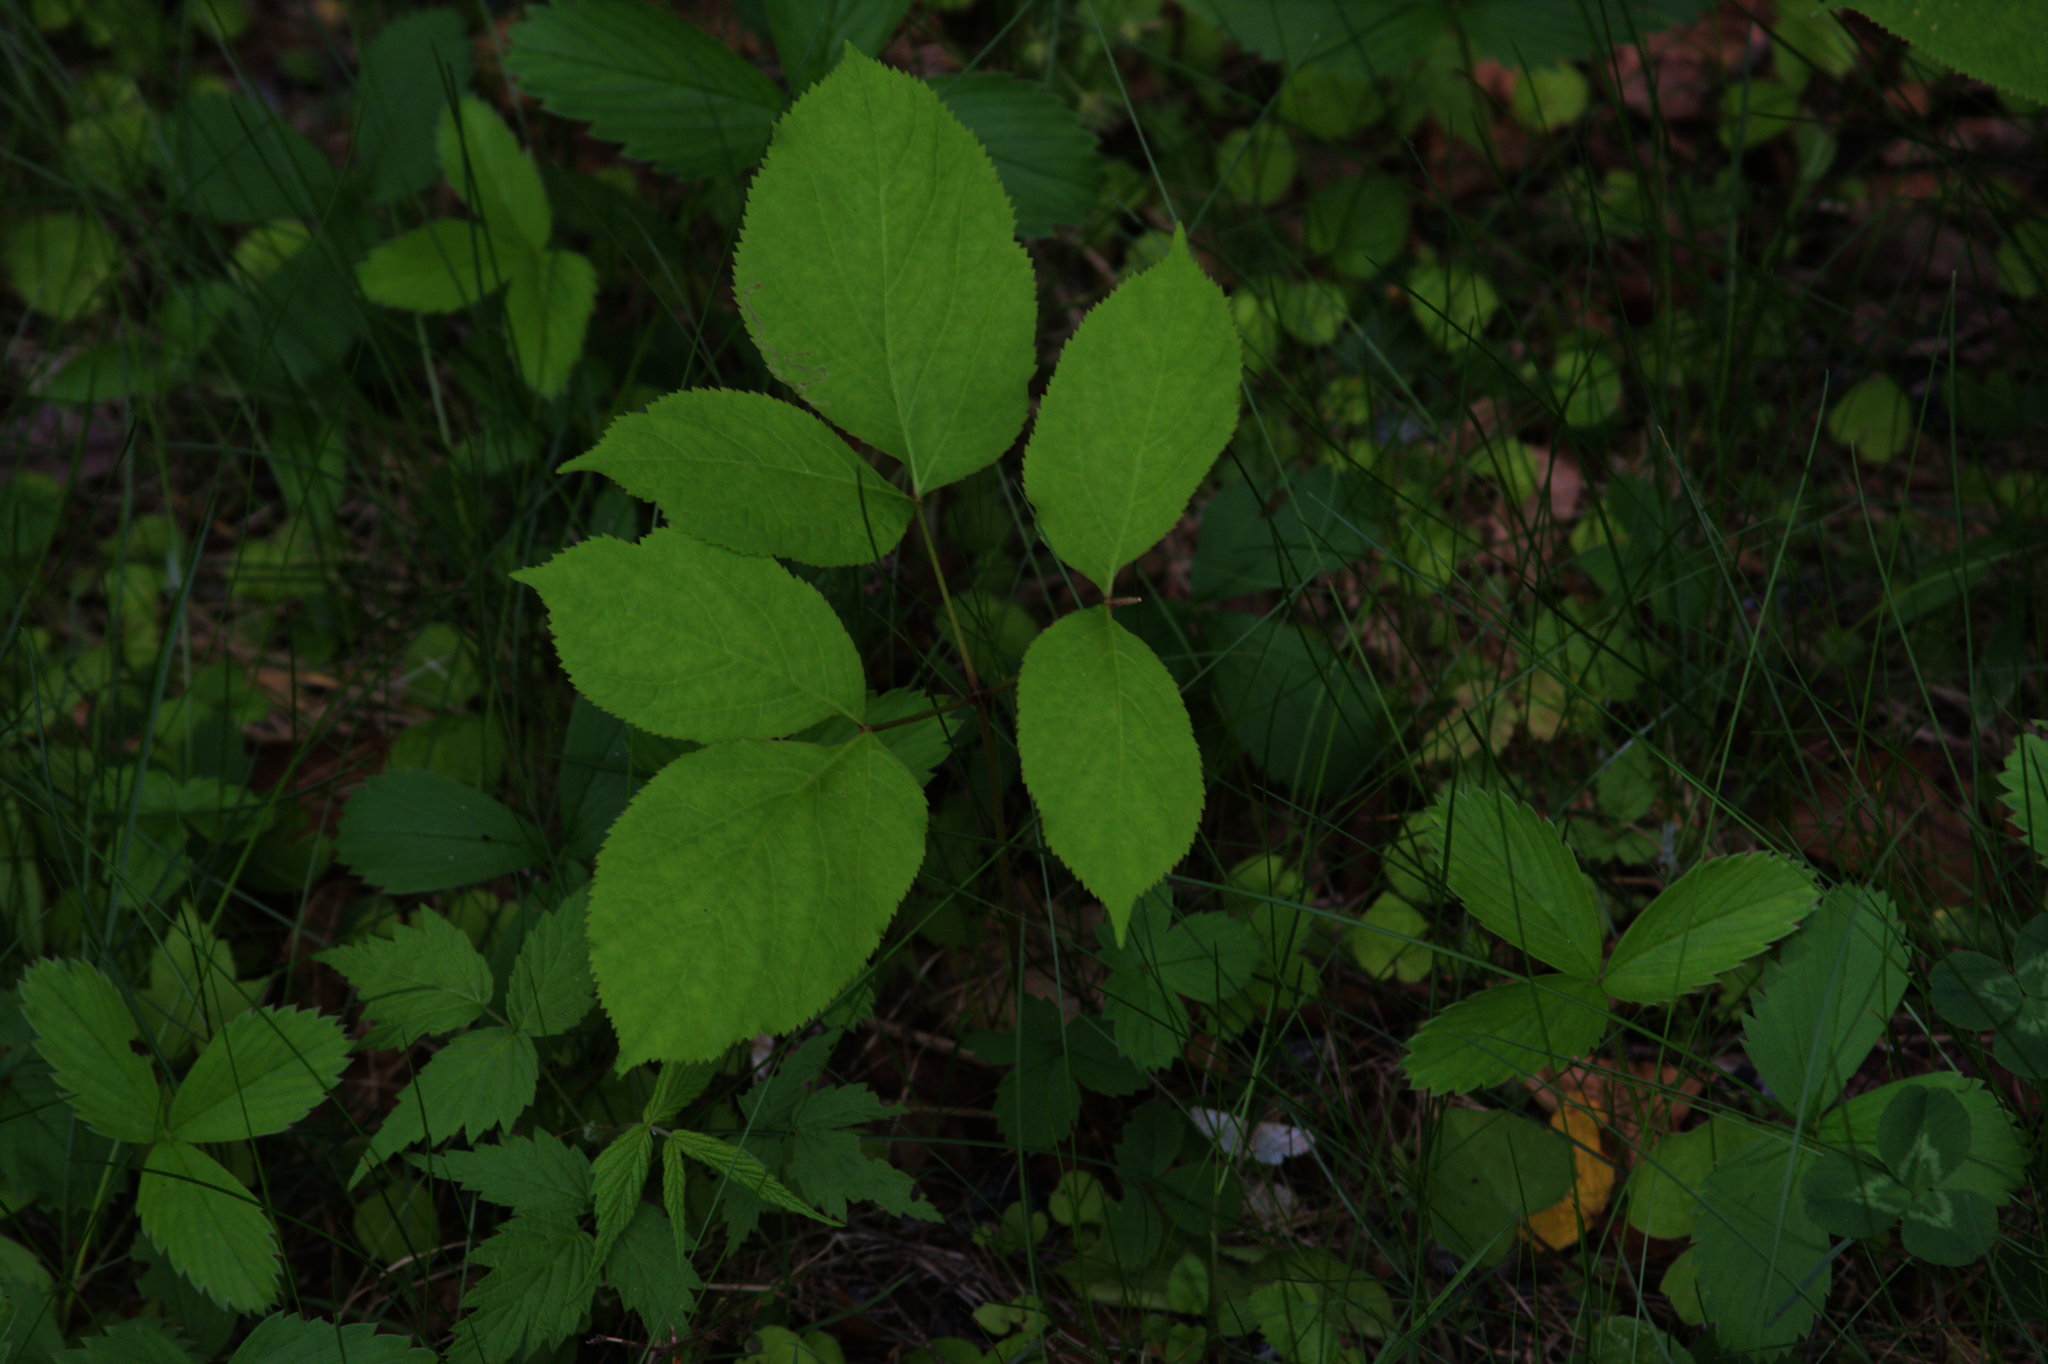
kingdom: Plantae
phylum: Tracheophyta
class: Magnoliopsida
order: Apiales
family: Araliaceae
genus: Aralia
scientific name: Aralia nudicaulis
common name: Wild sarsaparilla
